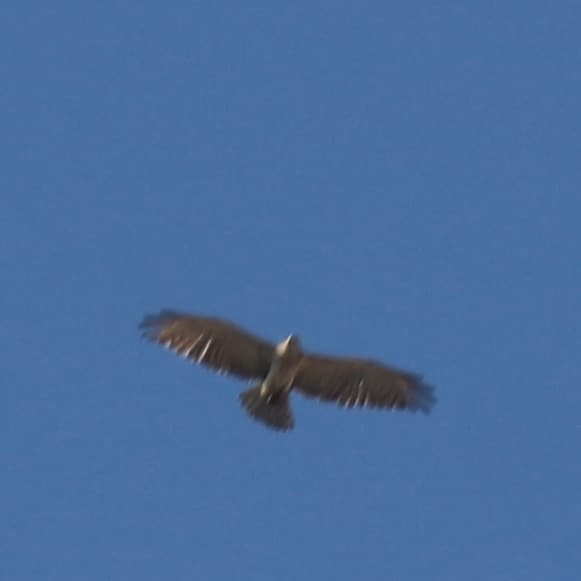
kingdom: Animalia
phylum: Chordata
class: Aves
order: Accipitriformes
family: Accipitridae
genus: Circaetus
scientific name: Circaetus gallicus
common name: Short-toed snake eagle
